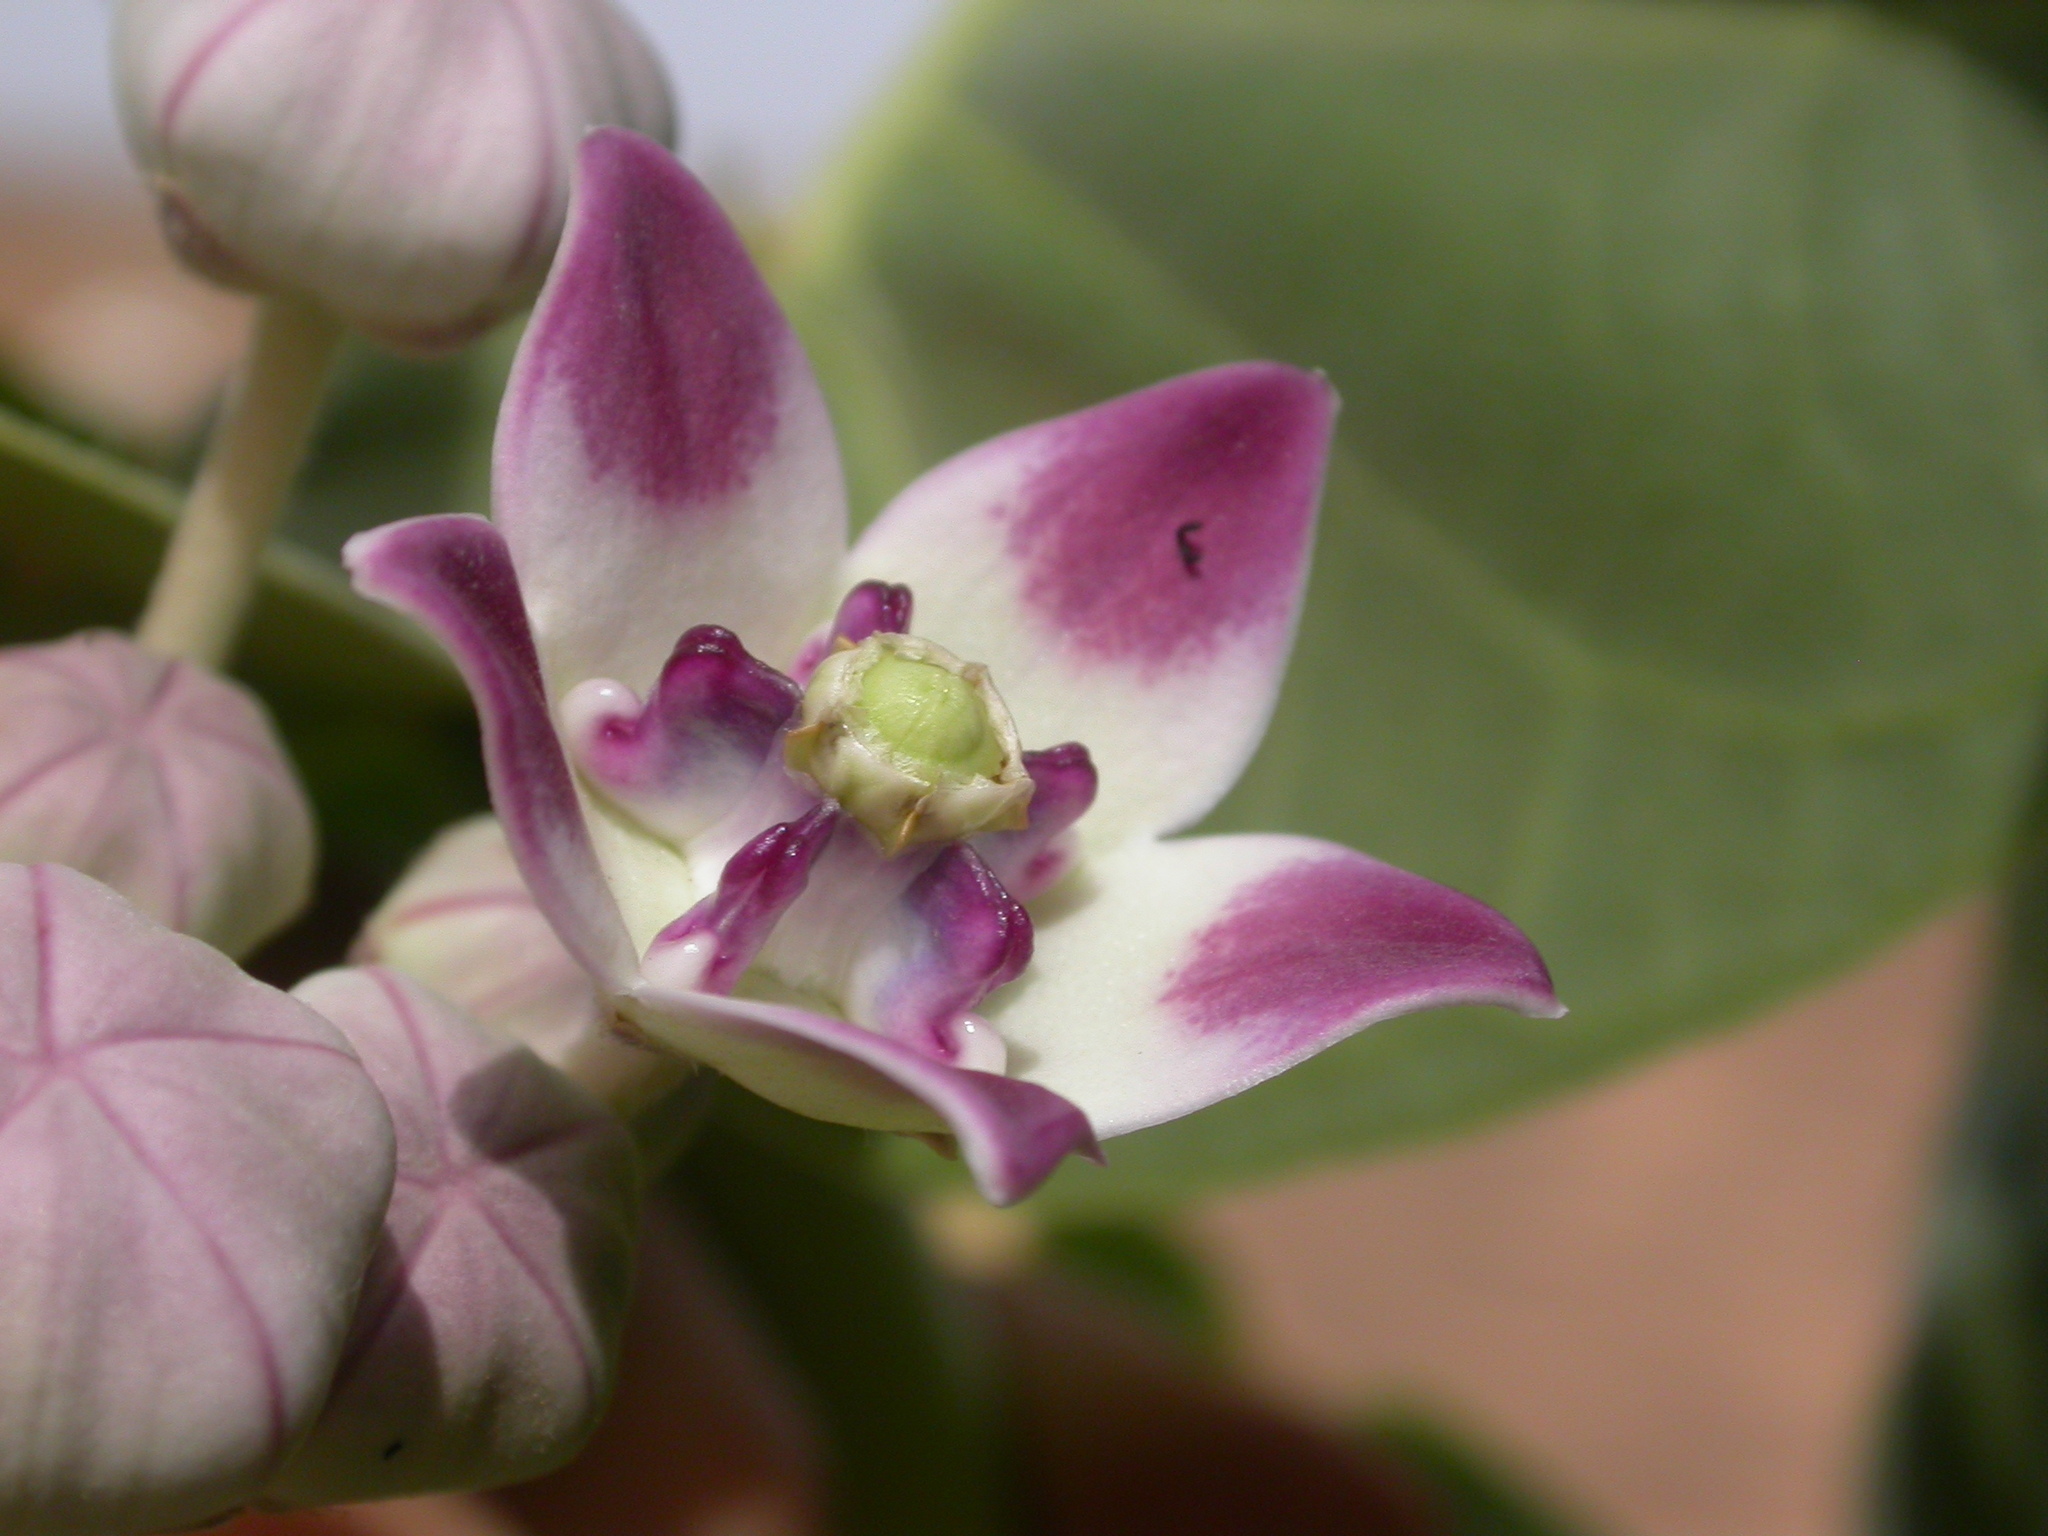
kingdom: Plantae
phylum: Tracheophyta
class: Magnoliopsida
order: Gentianales
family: Apocynaceae
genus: Calotropis
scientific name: Calotropis procera
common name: Roostertree
